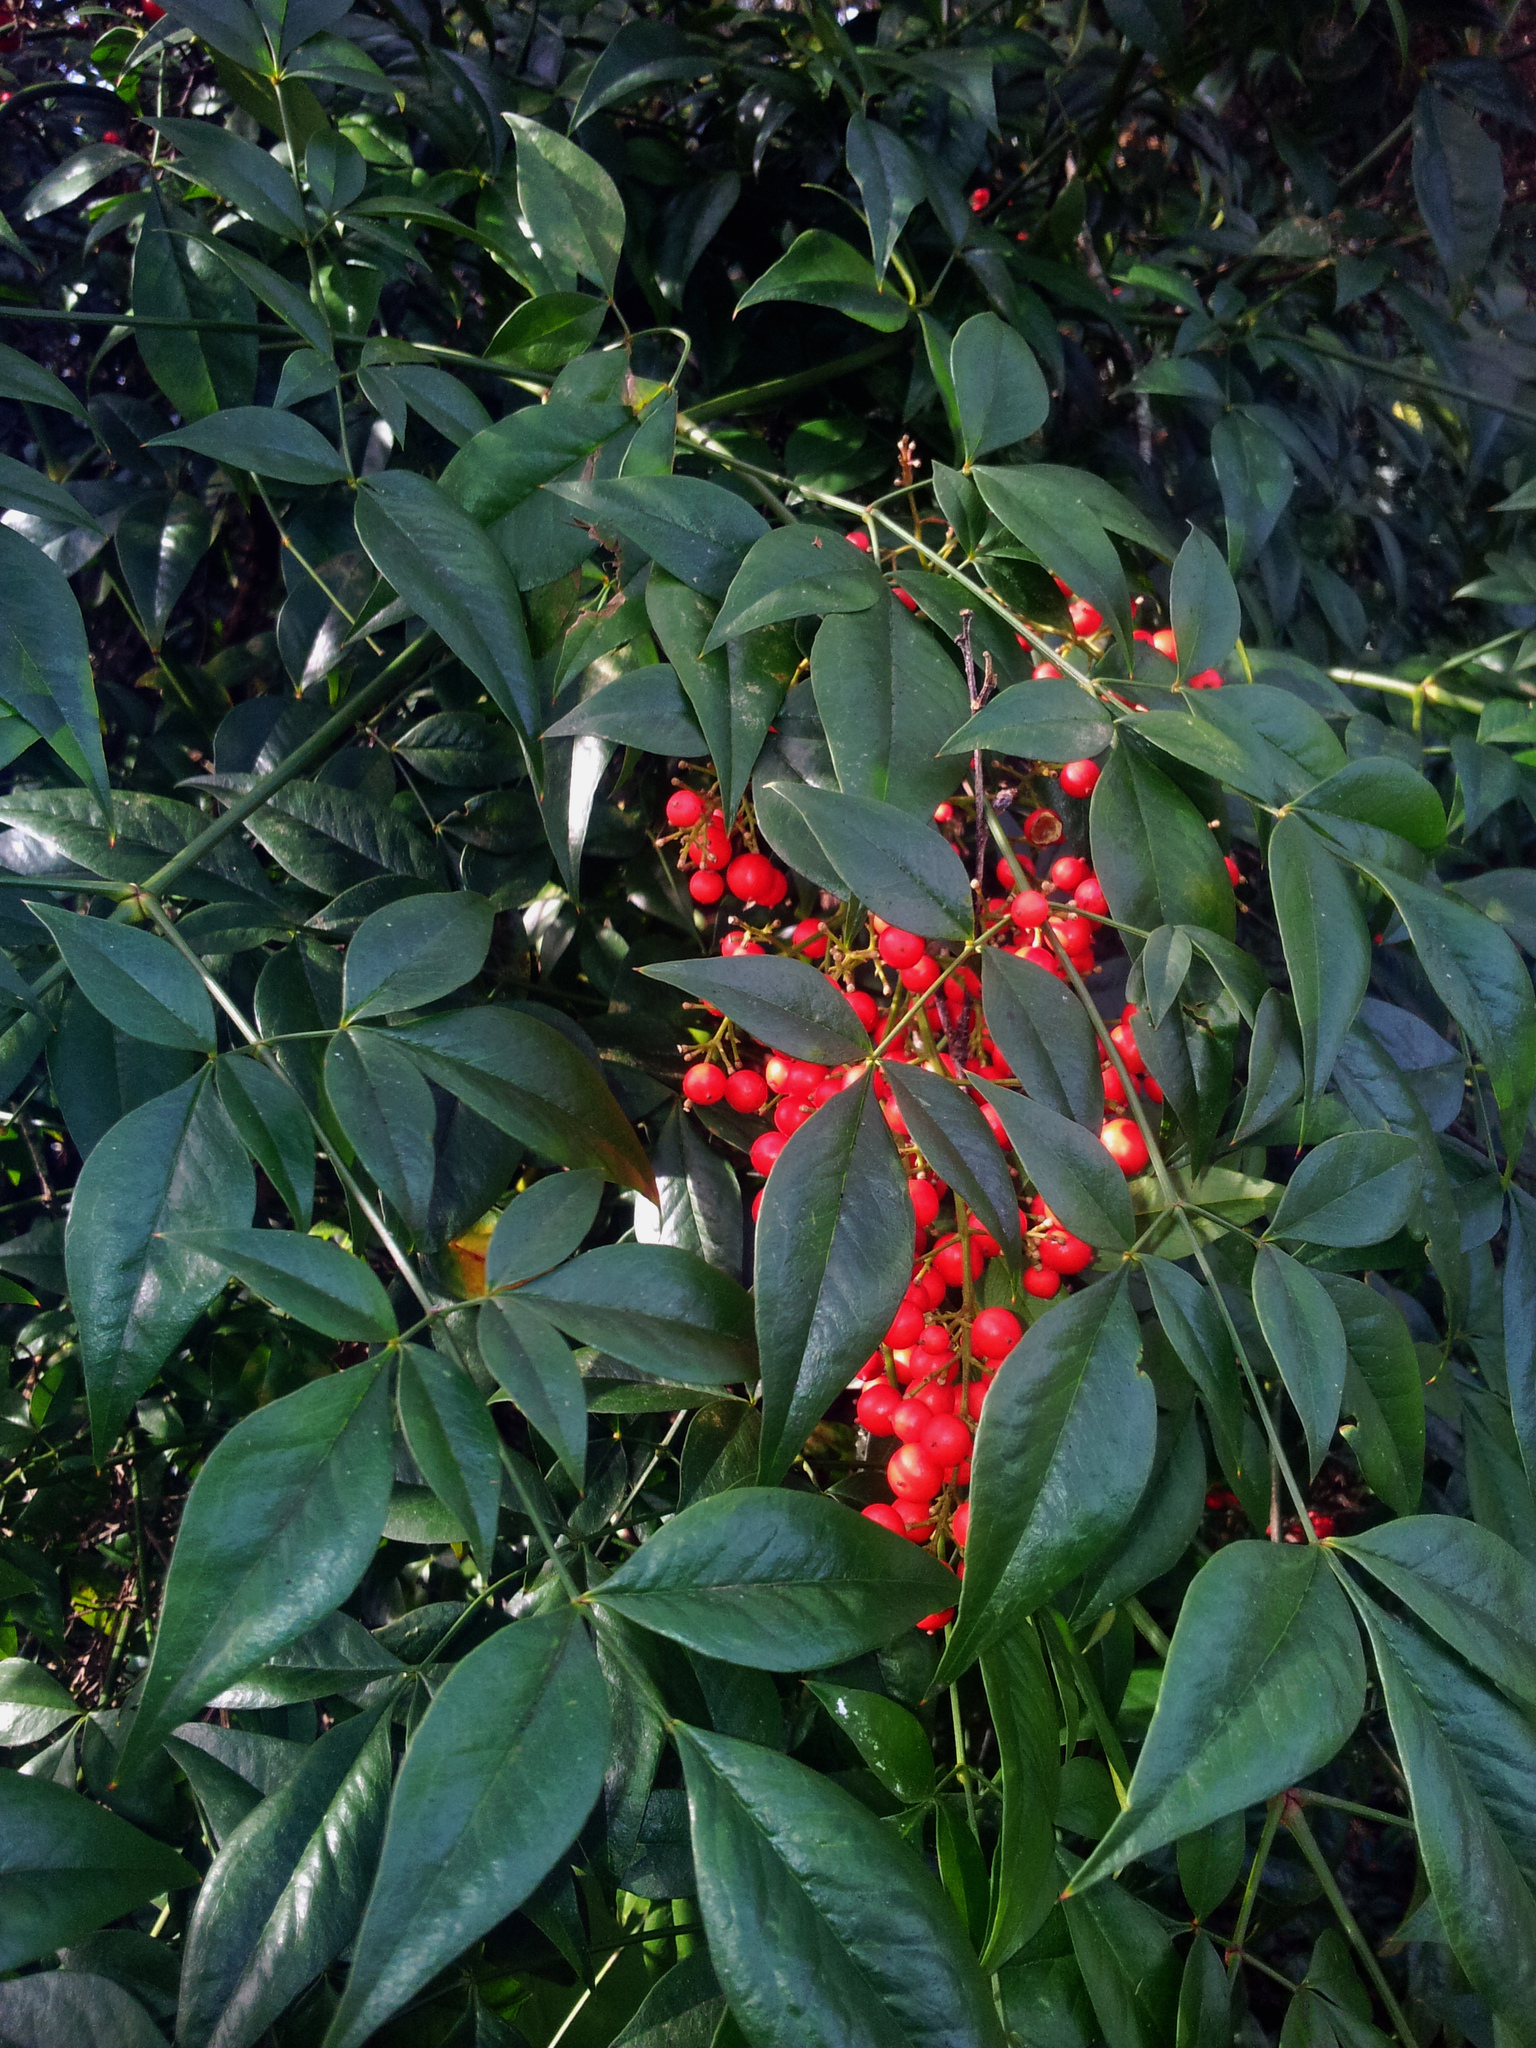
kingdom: Plantae
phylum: Tracheophyta
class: Magnoliopsida
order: Ranunculales
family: Berberidaceae
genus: Nandina
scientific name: Nandina domestica
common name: Sacred bamboo
